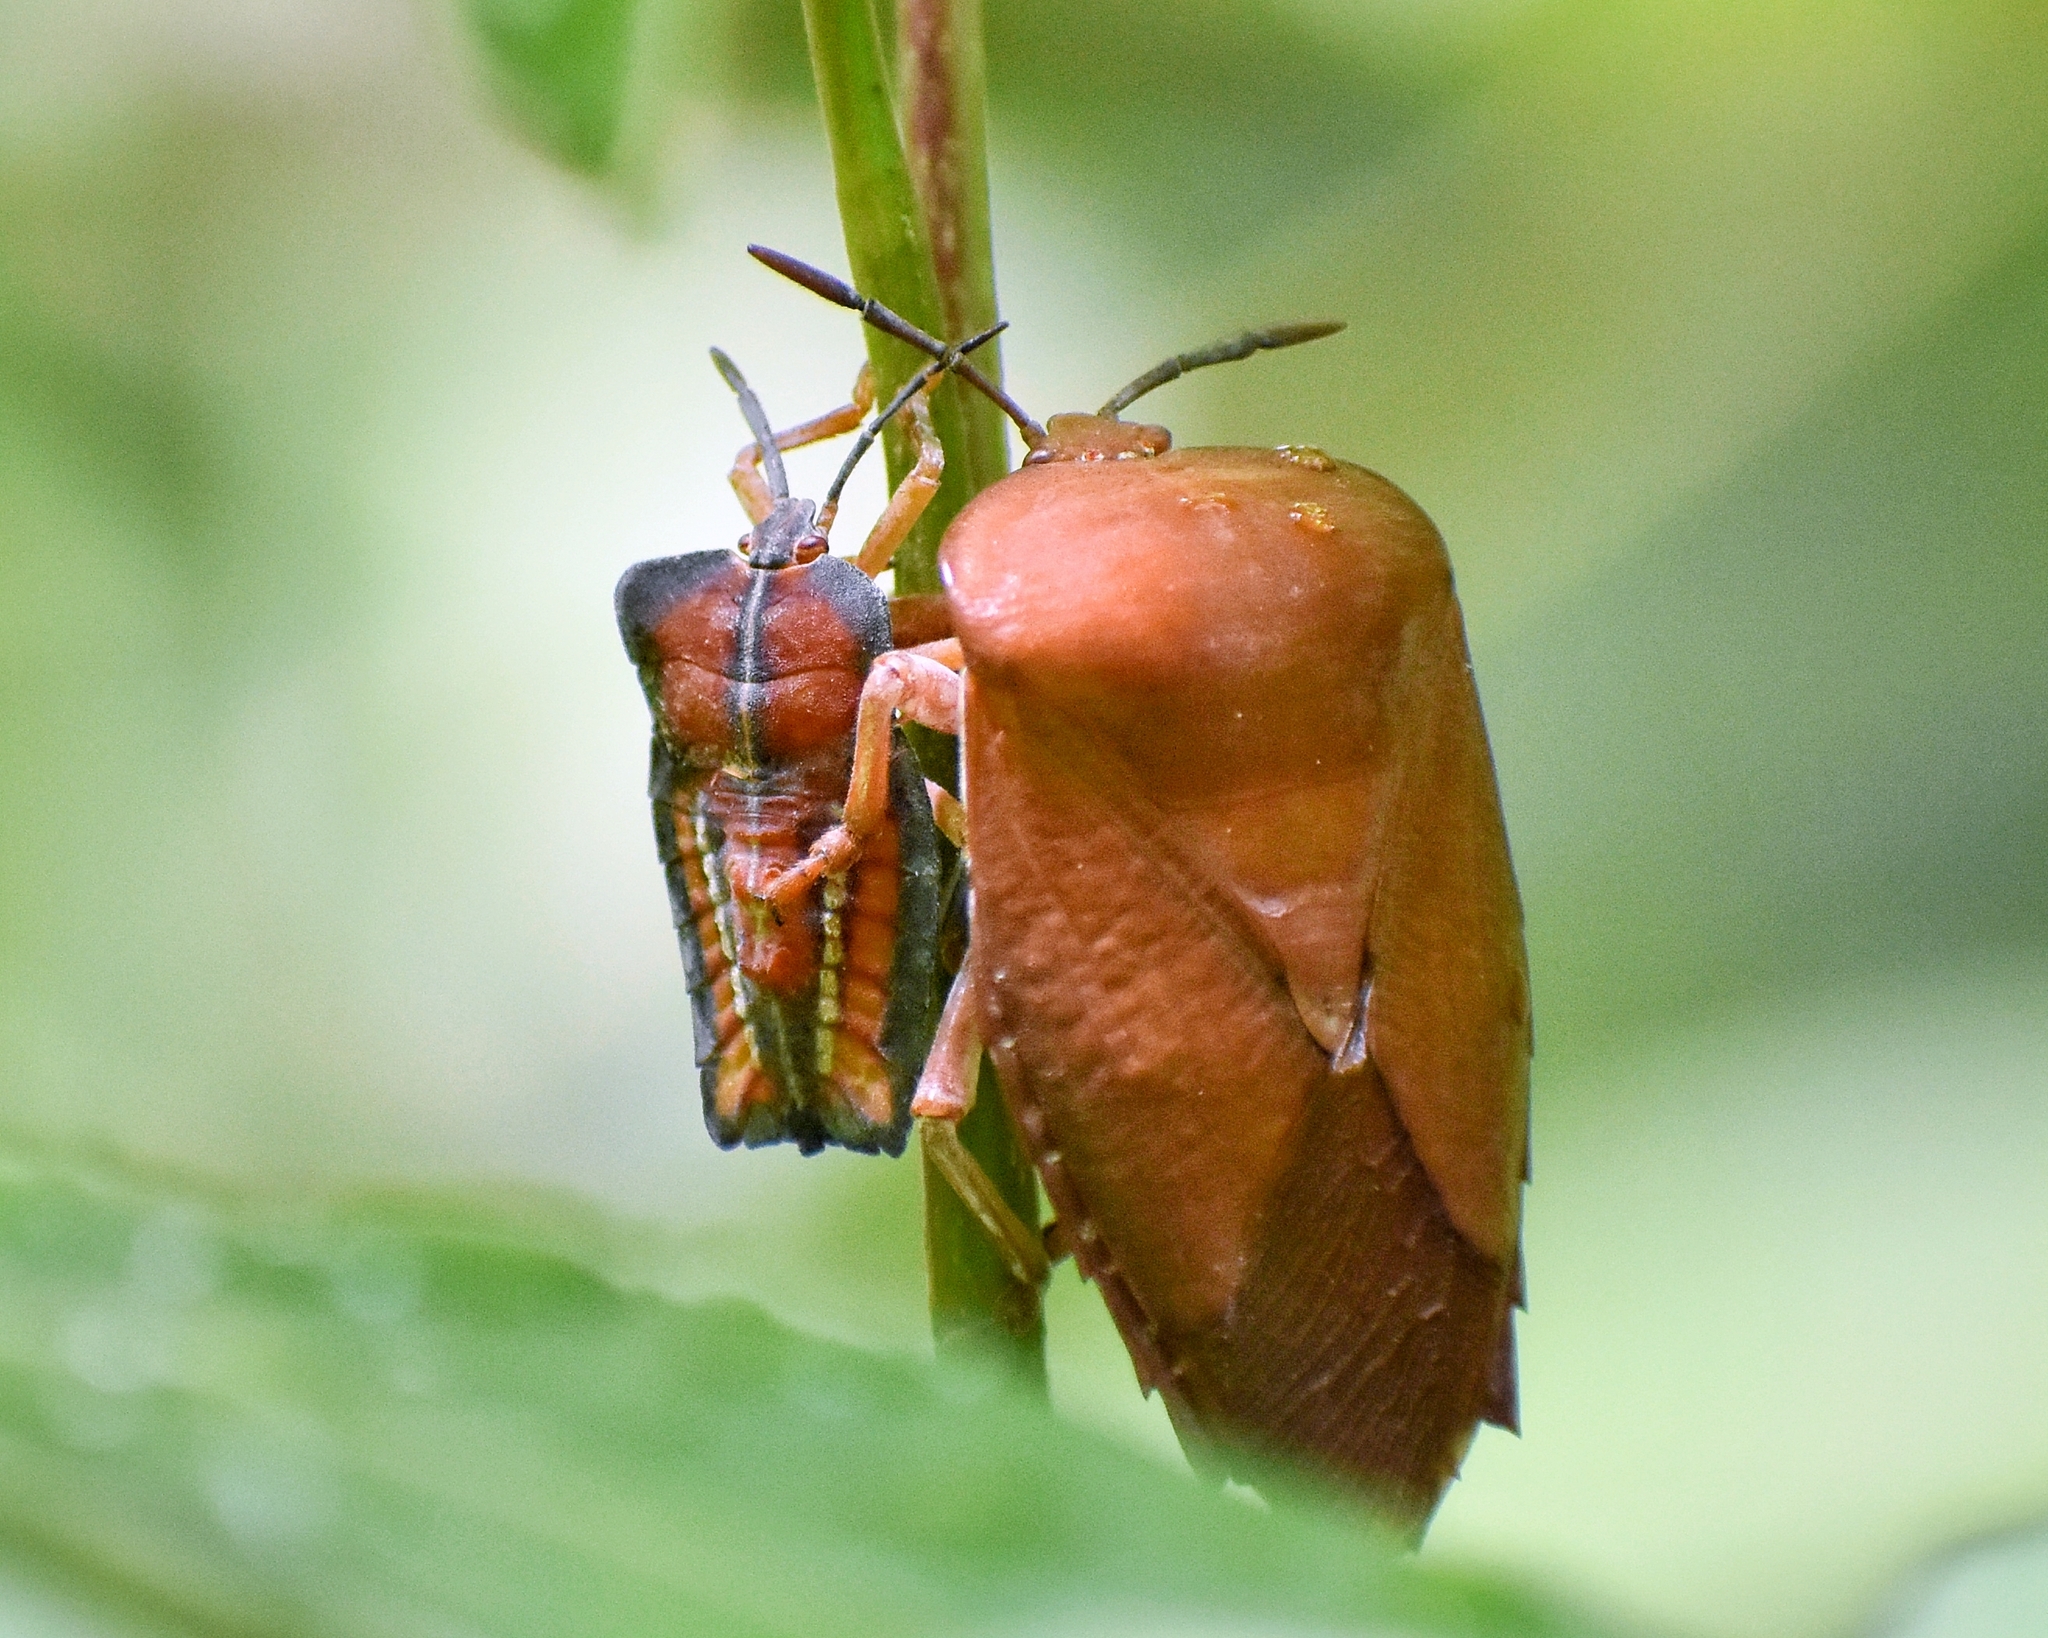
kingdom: Animalia
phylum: Arthropoda
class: Insecta
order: Hemiptera
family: Tessaratomidae
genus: Tessaratoma
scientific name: Tessaratoma papillosa
